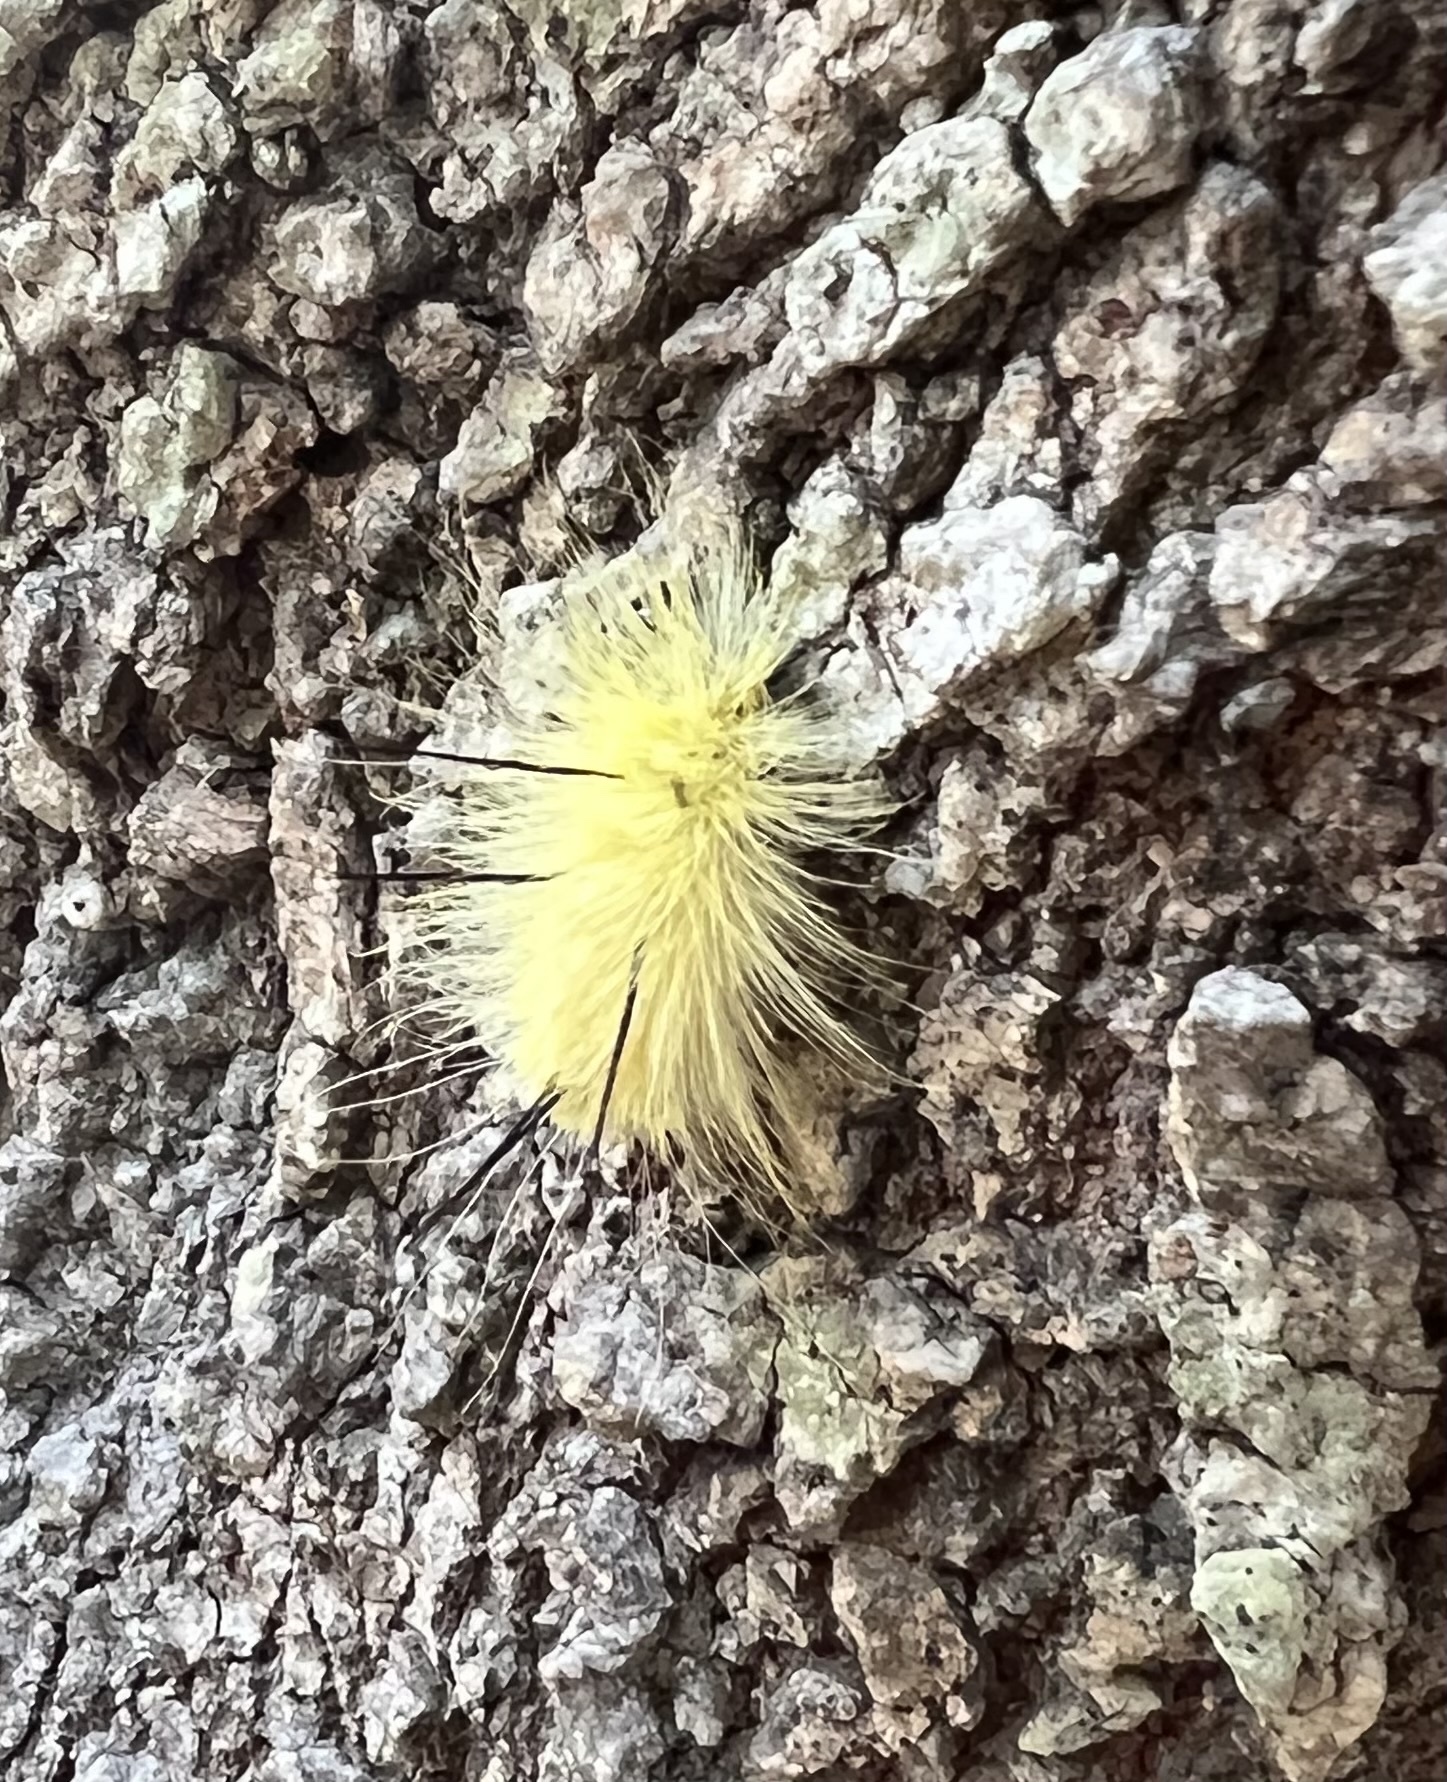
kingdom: Animalia
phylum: Arthropoda
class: Insecta
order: Lepidoptera
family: Noctuidae
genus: Acronicta
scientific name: Acronicta americana
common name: American dagger
